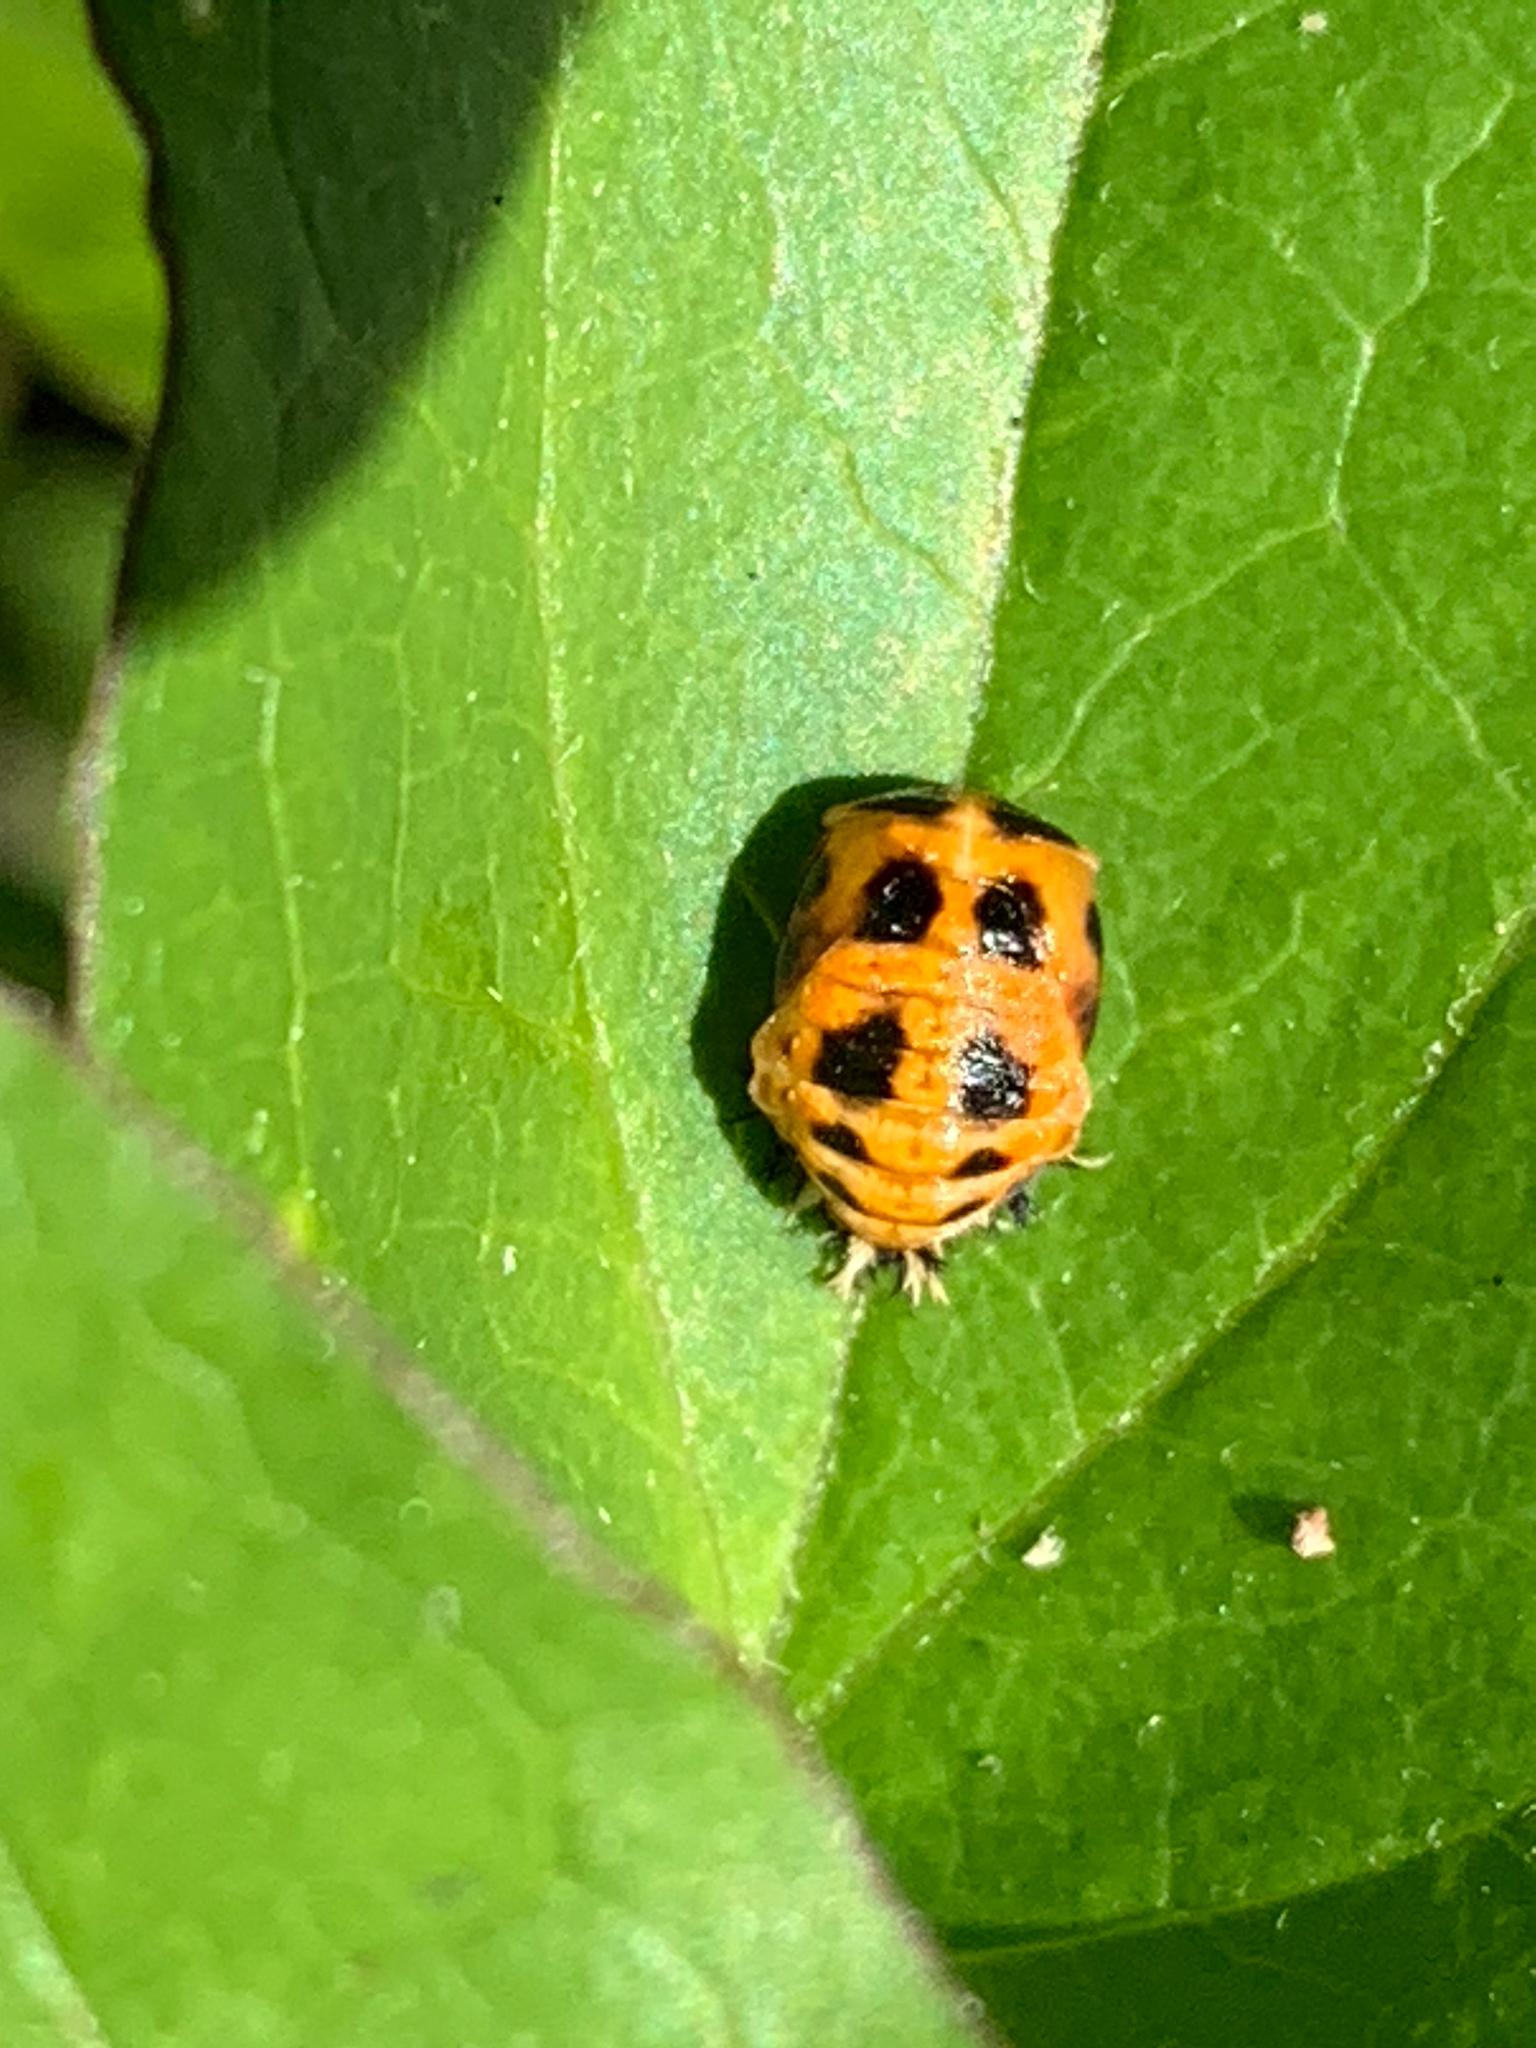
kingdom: Animalia
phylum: Arthropoda
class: Insecta
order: Coleoptera
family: Coccinellidae
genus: Harmonia
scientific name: Harmonia axyridis
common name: Harlequin ladybird
